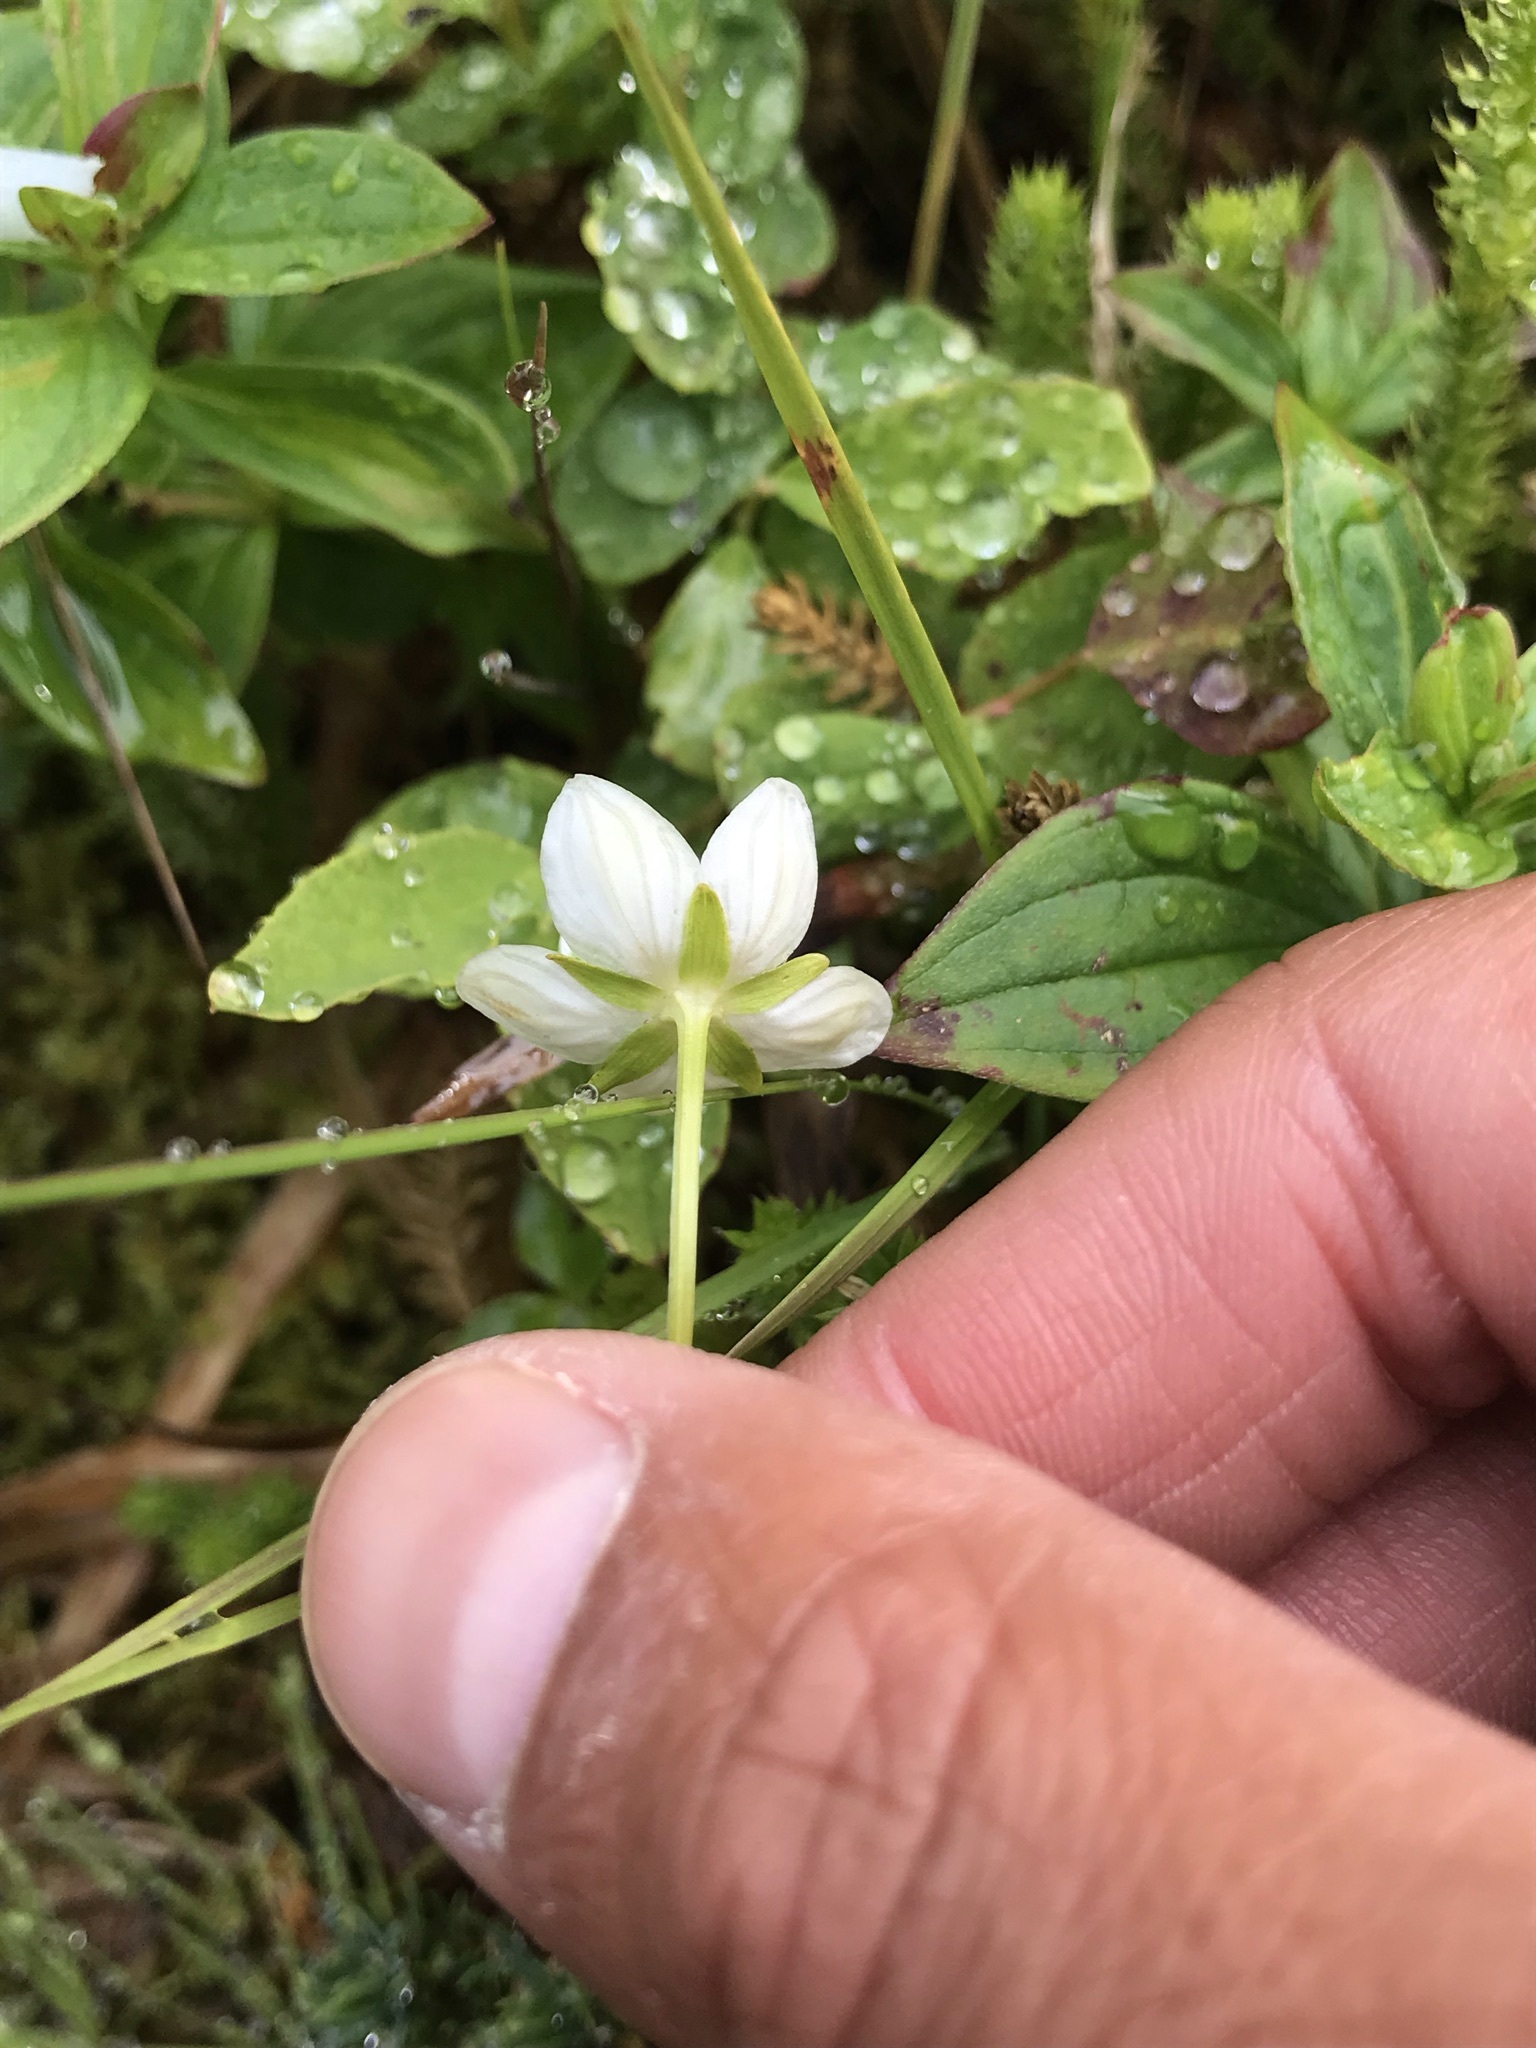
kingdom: Plantae
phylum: Tracheophyta
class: Magnoliopsida
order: Celastrales
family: Parnassiaceae
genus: Parnassia
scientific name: Parnassia palustris
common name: Grass-of-parnassus
